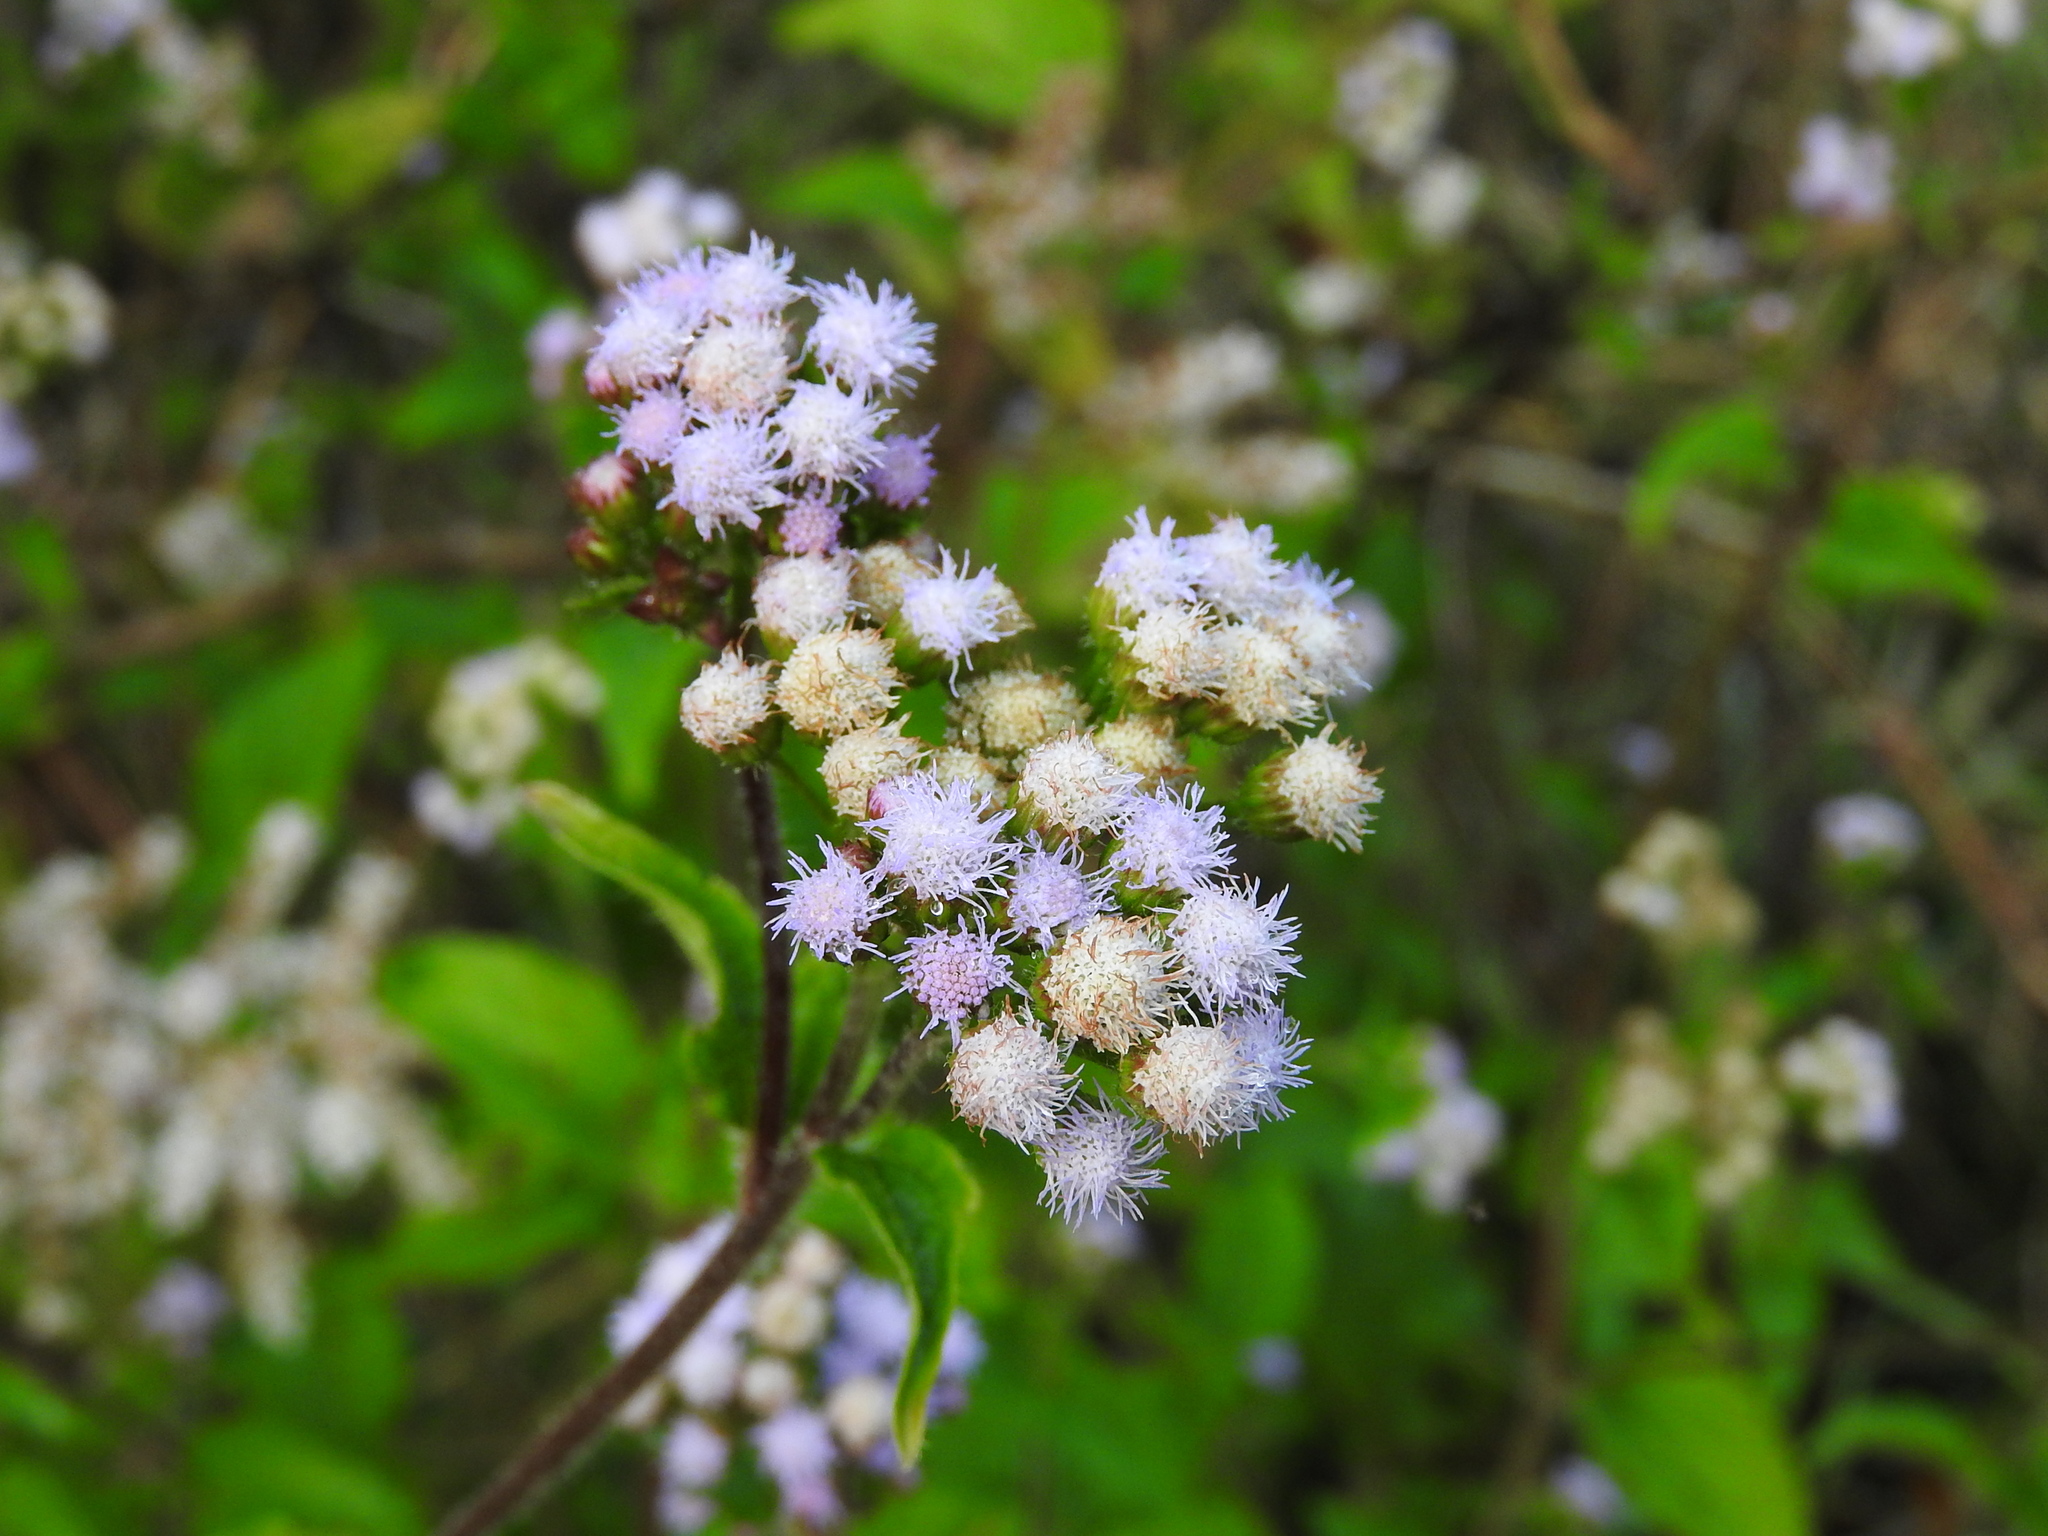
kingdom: Plantae
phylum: Tracheophyta
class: Magnoliopsida
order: Asterales
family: Asteraceae
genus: Ageratum
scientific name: Ageratum conyzoides
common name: Tropical whiteweed
